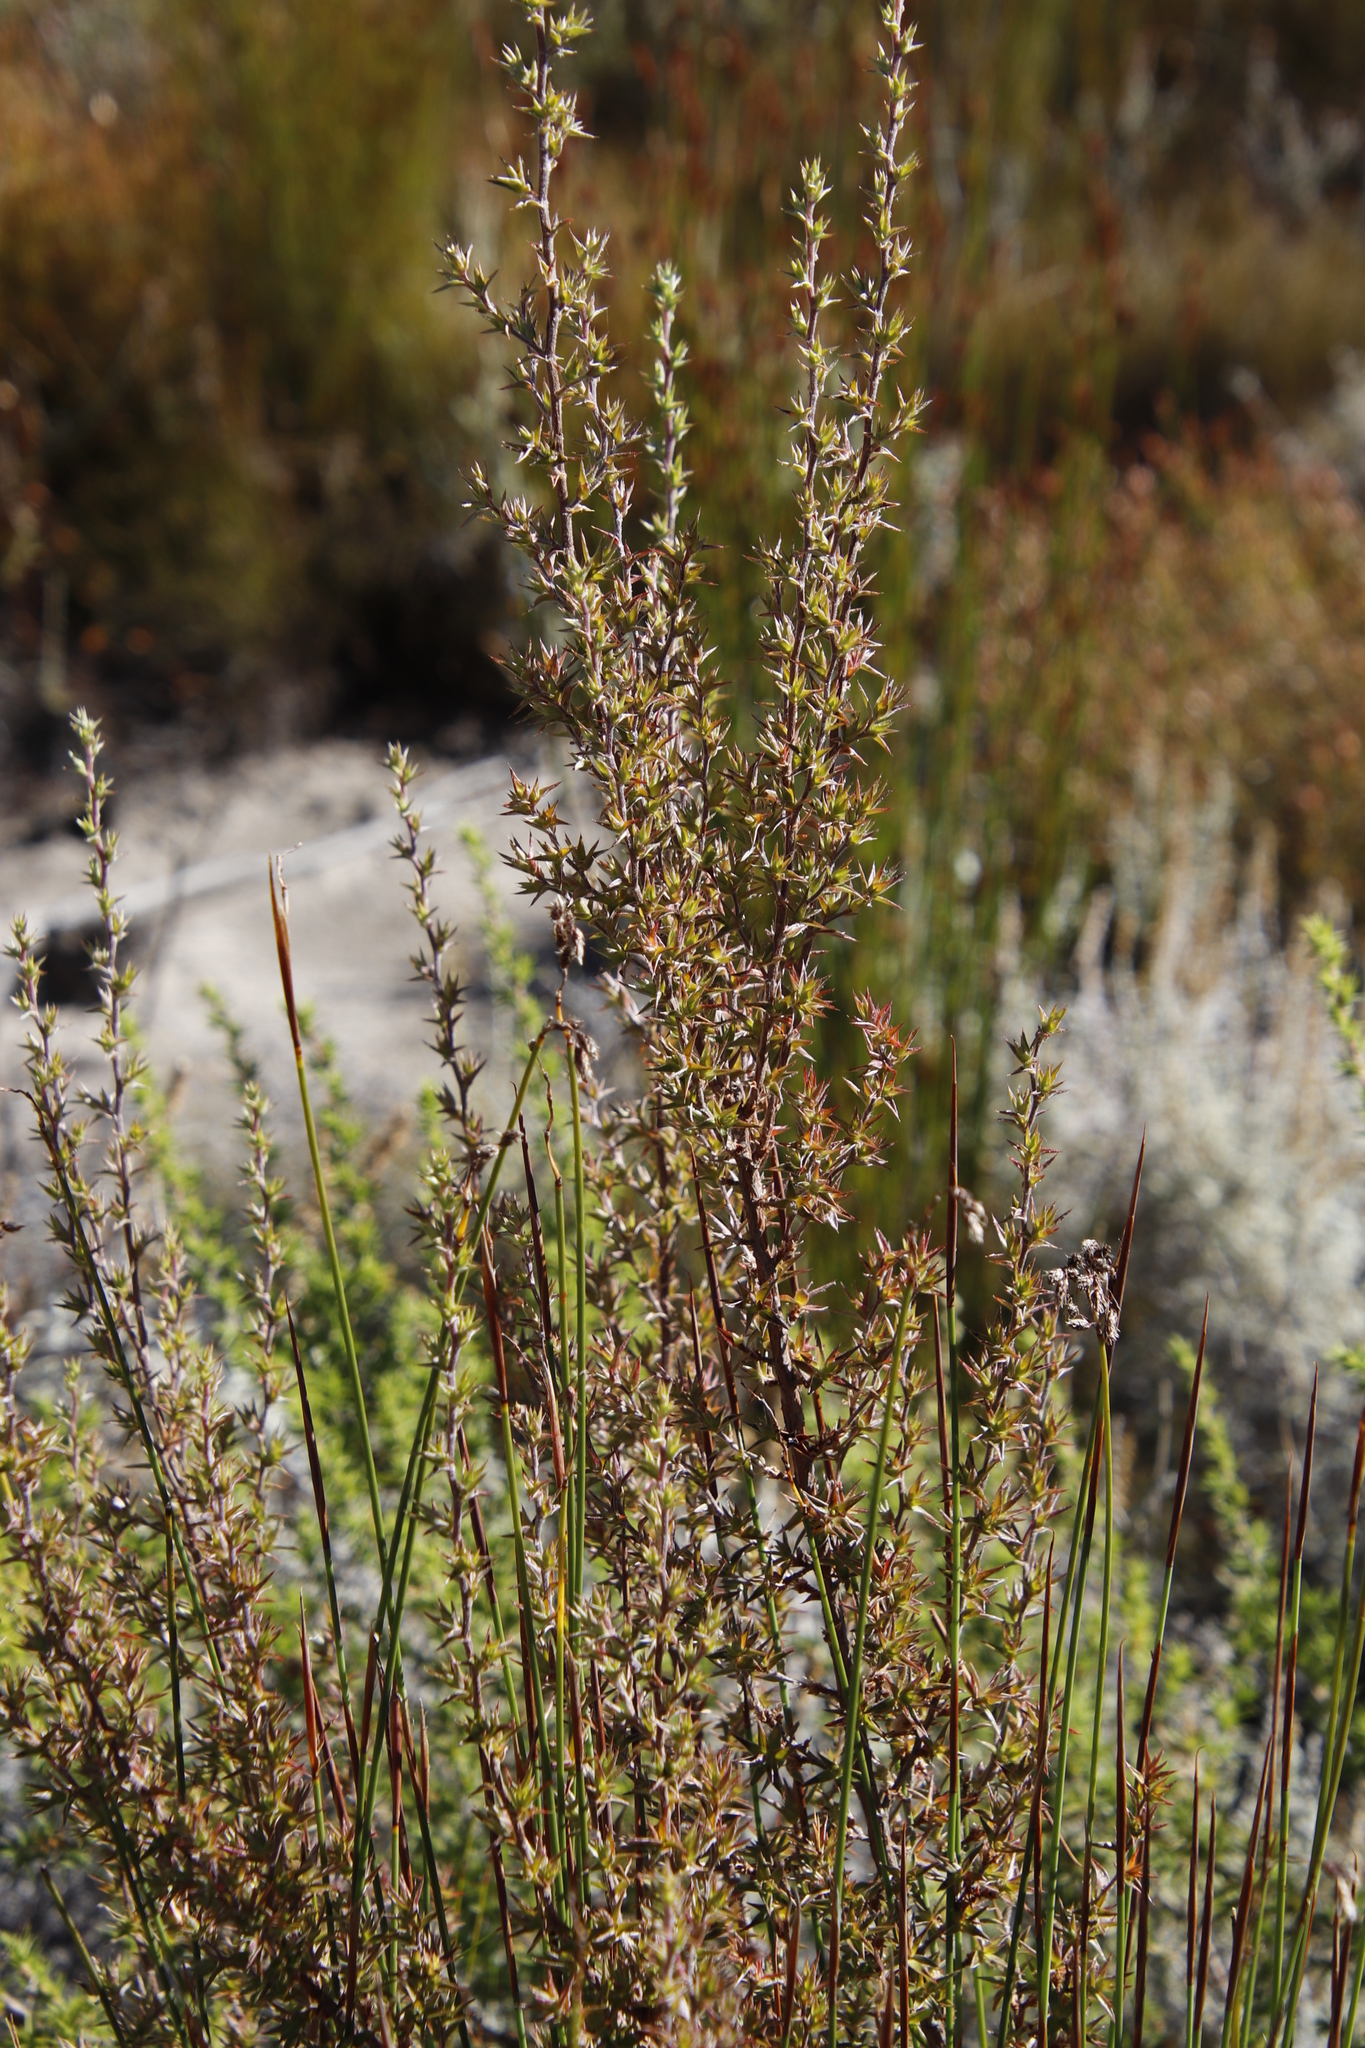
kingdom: Plantae
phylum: Tracheophyta
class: Magnoliopsida
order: Rosales
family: Rosaceae
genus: Cliffortia
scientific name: Cliffortia ruscifolia
